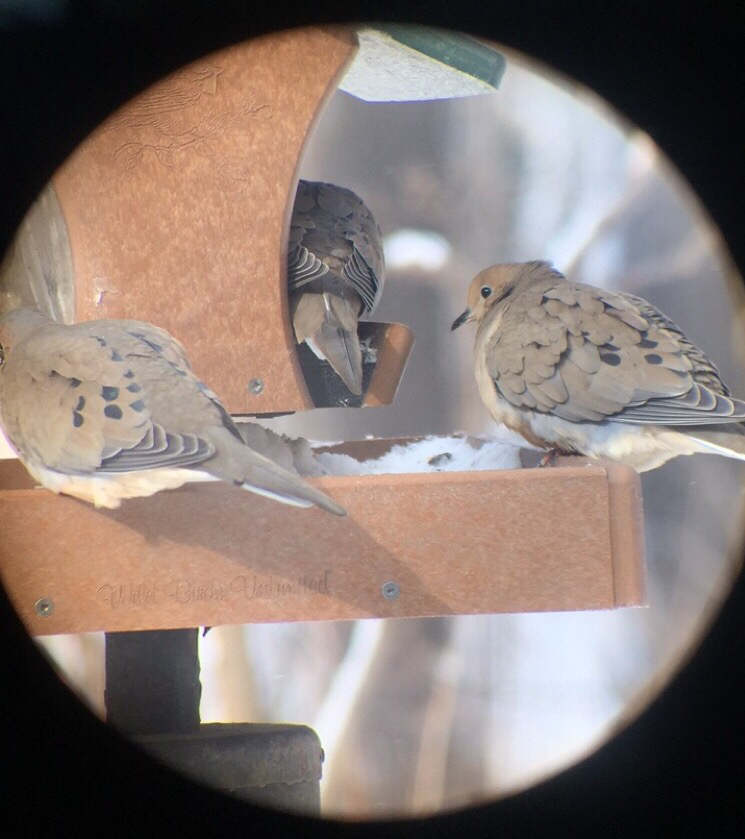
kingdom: Animalia
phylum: Chordata
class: Aves
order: Columbiformes
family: Columbidae
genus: Zenaida
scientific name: Zenaida macroura
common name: Mourning dove
